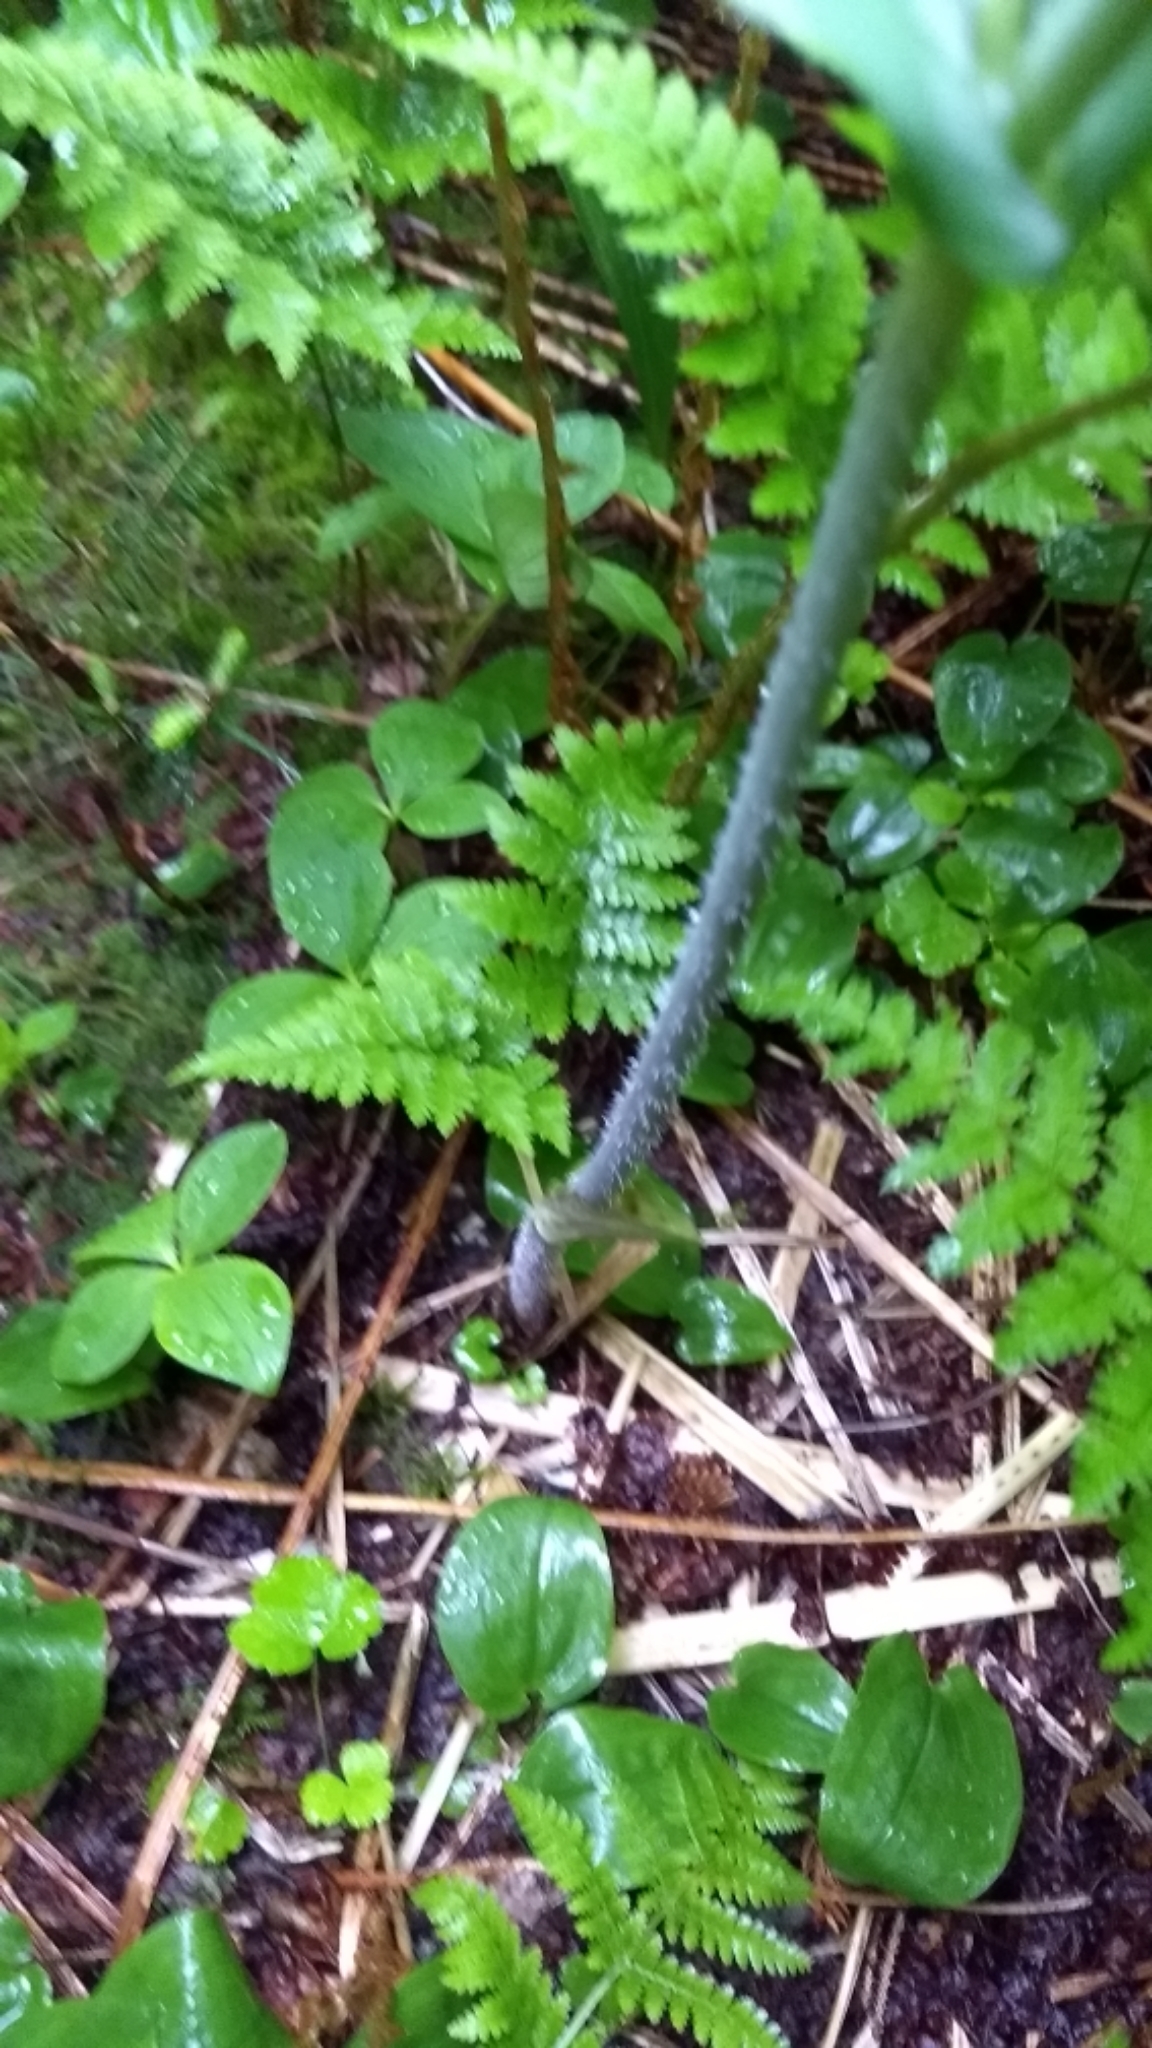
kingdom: Plantae
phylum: Tracheophyta
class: Liliopsida
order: Liliales
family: Liliaceae
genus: Streptopus
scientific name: Streptopus amplexifolius
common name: Clasp twisted stalk
